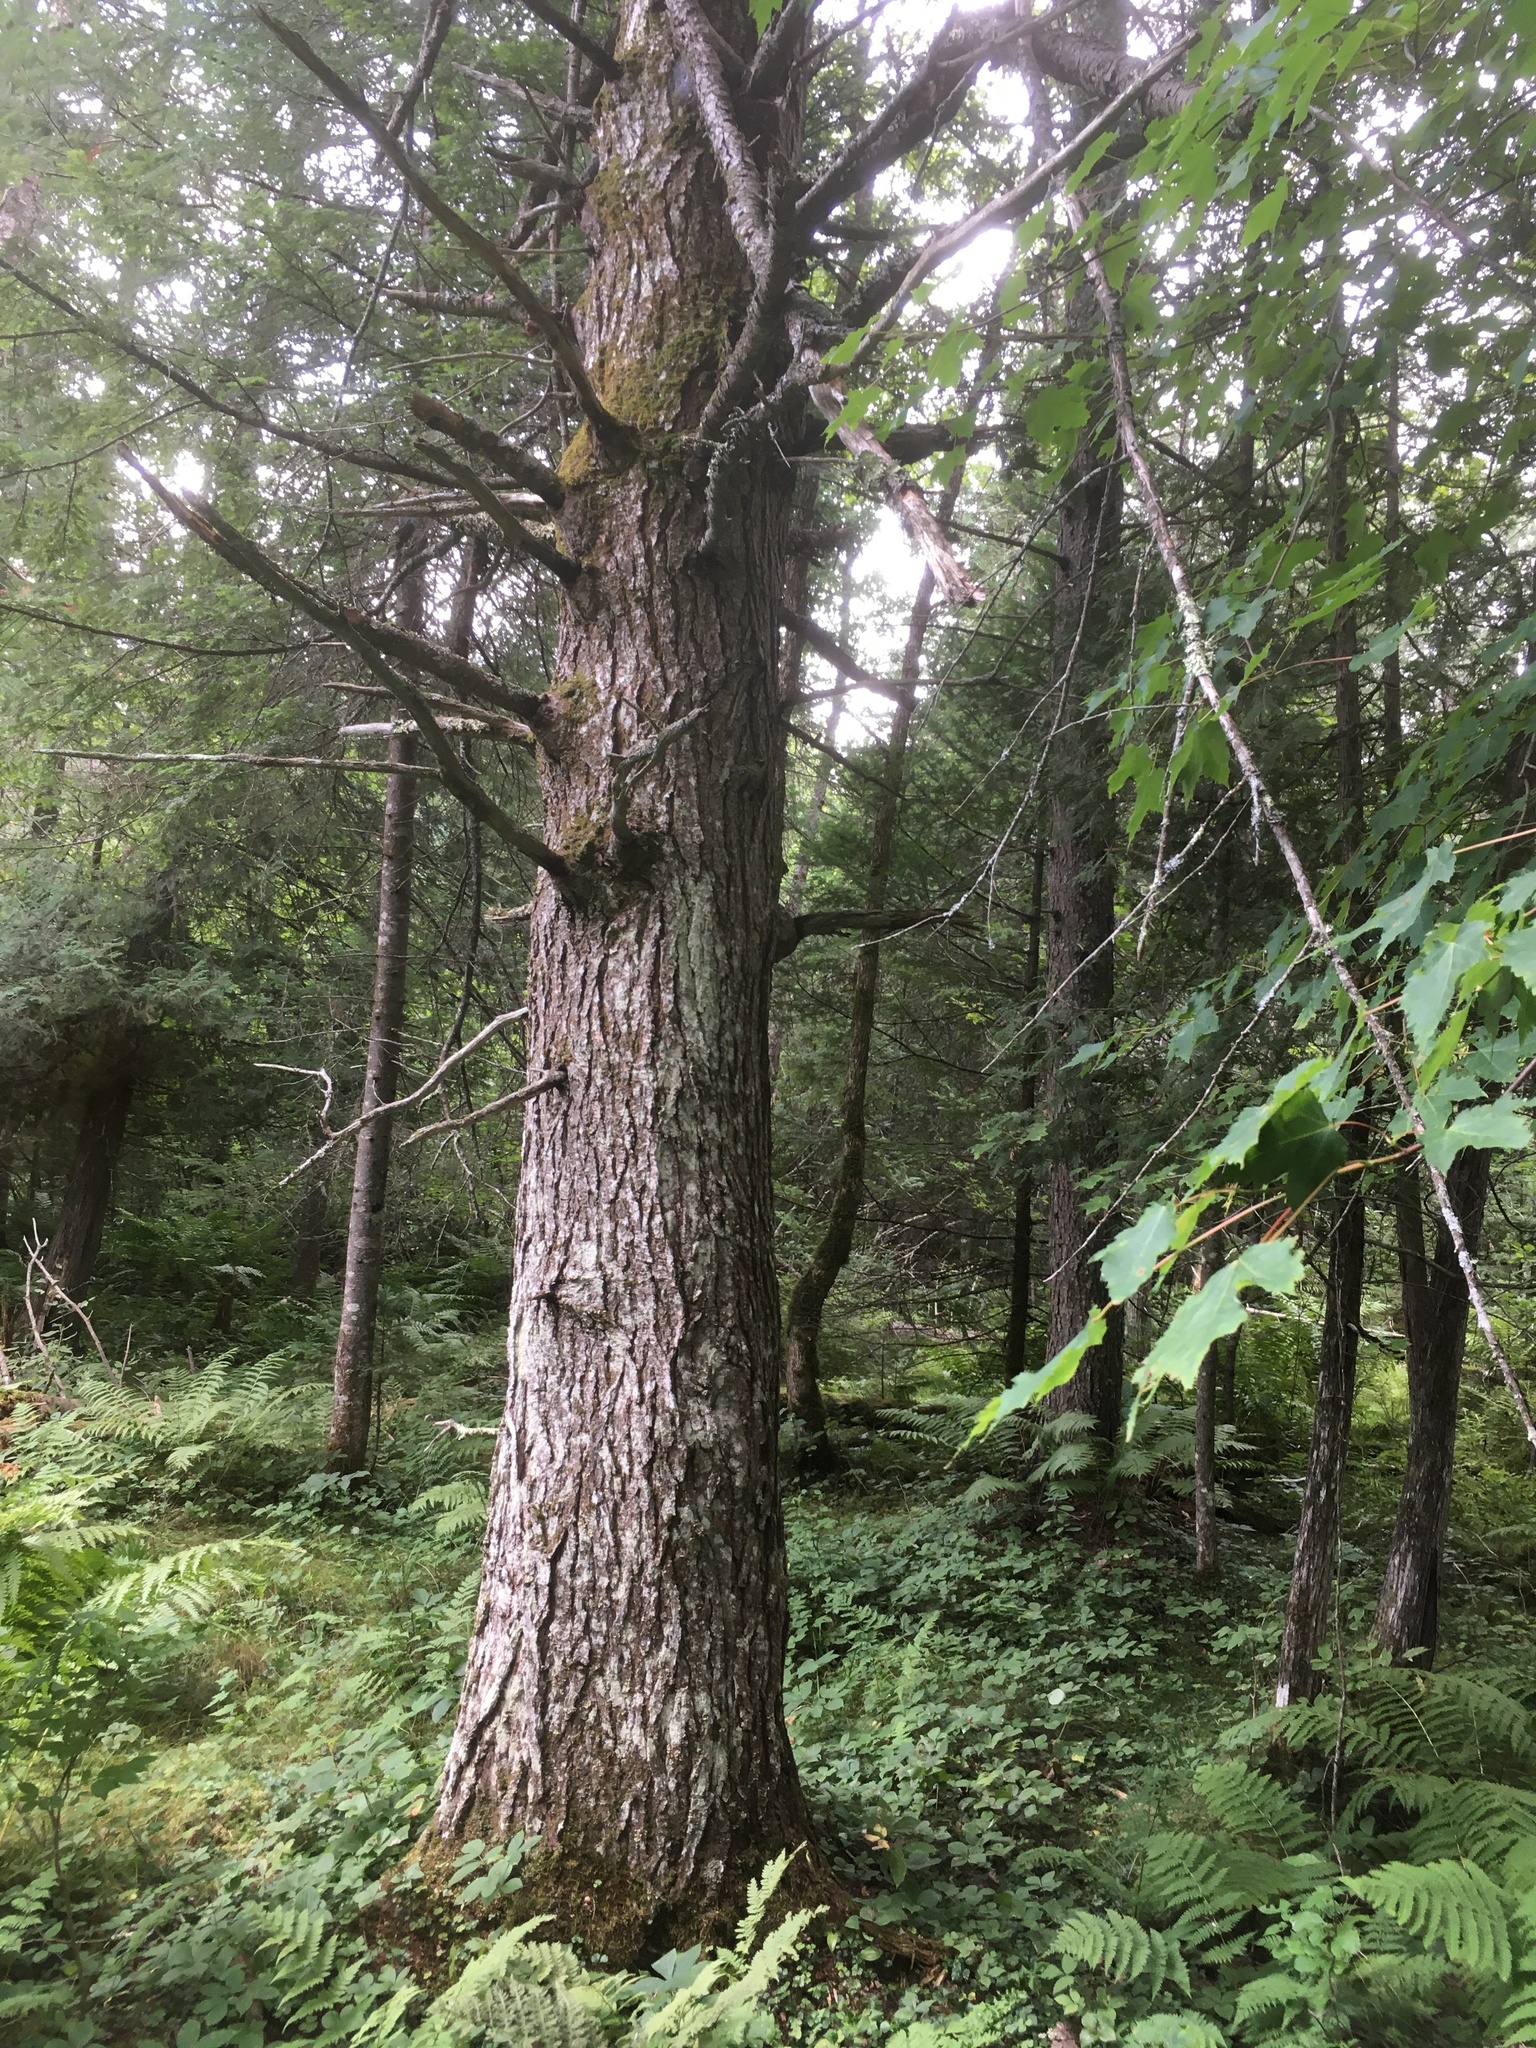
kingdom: Plantae
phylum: Tracheophyta
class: Pinopsida
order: Pinales
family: Pinaceae
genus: Tsuga
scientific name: Tsuga canadensis
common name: Eastern hemlock
